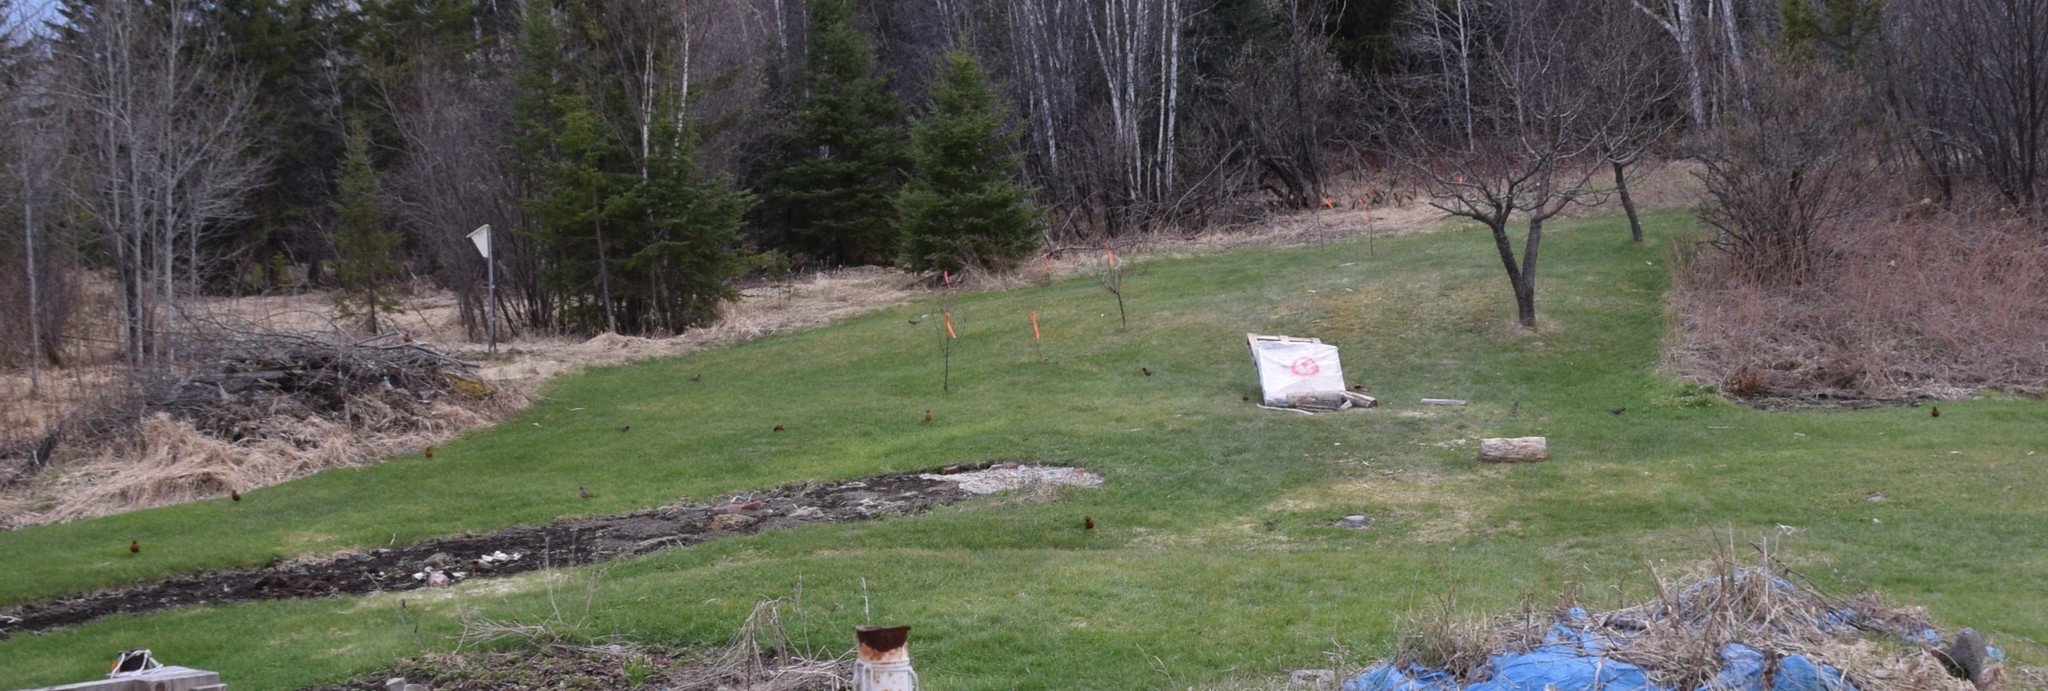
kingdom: Animalia
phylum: Chordata
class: Aves
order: Passeriformes
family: Turdidae
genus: Turdus
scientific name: Turdus migratorius
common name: American robin
